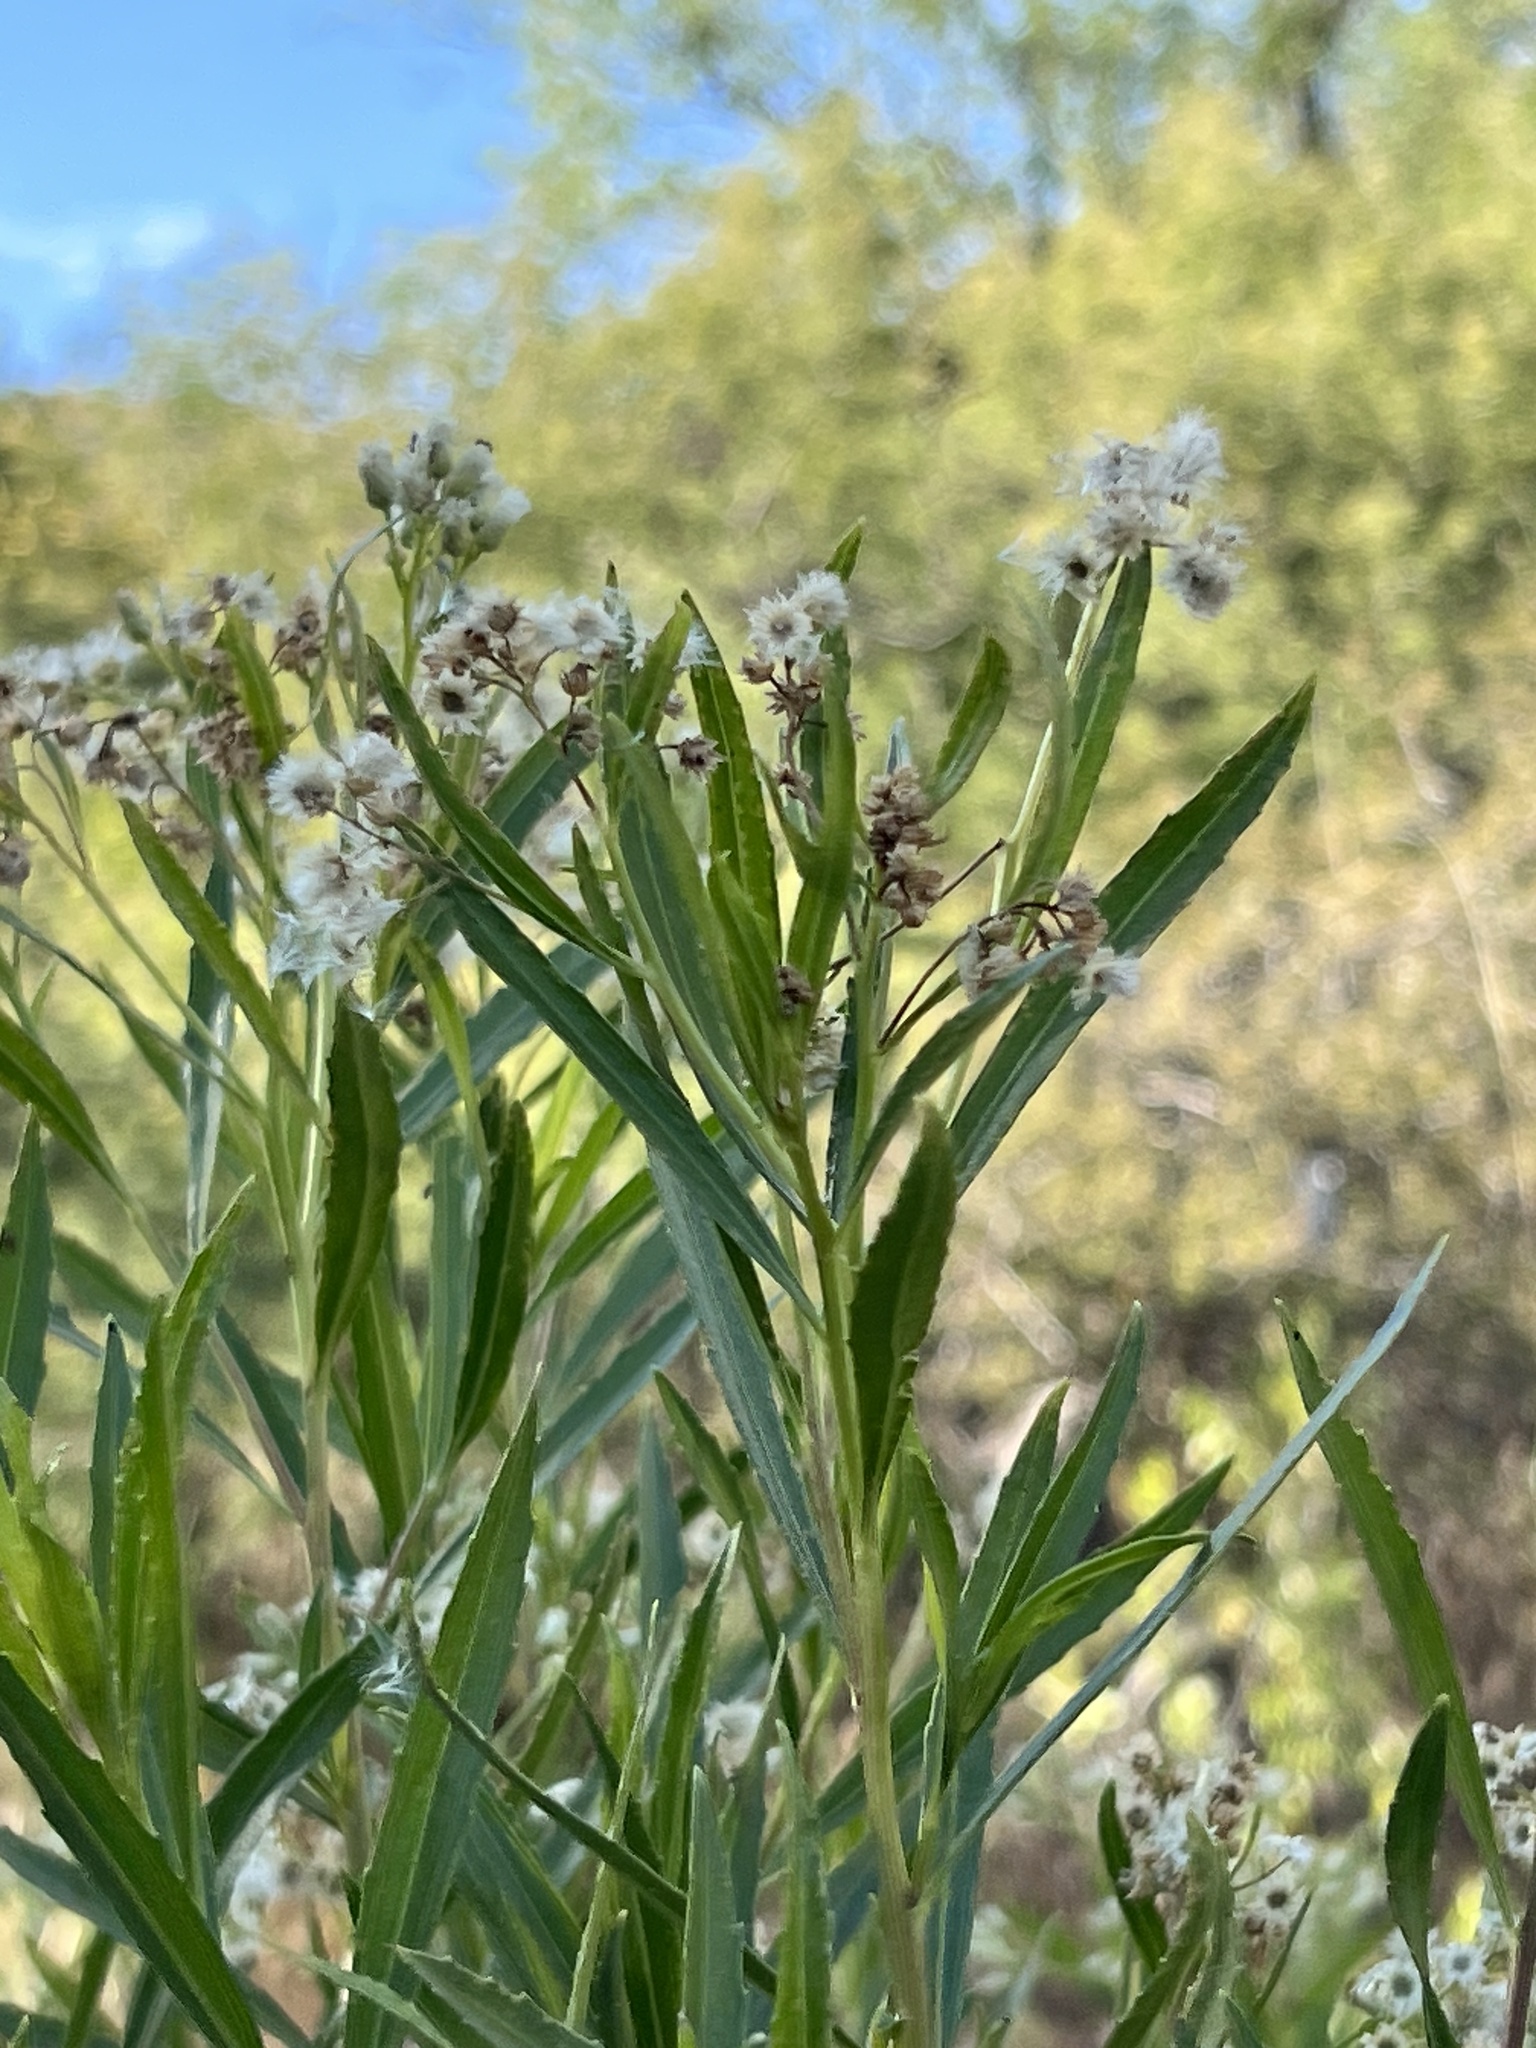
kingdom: Plantae
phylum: Tracheophyta
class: Magnoliopsida
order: Asterales
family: Asteraceae
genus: Baccharis
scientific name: Baccharis salicifolia
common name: Sticky baccharis
